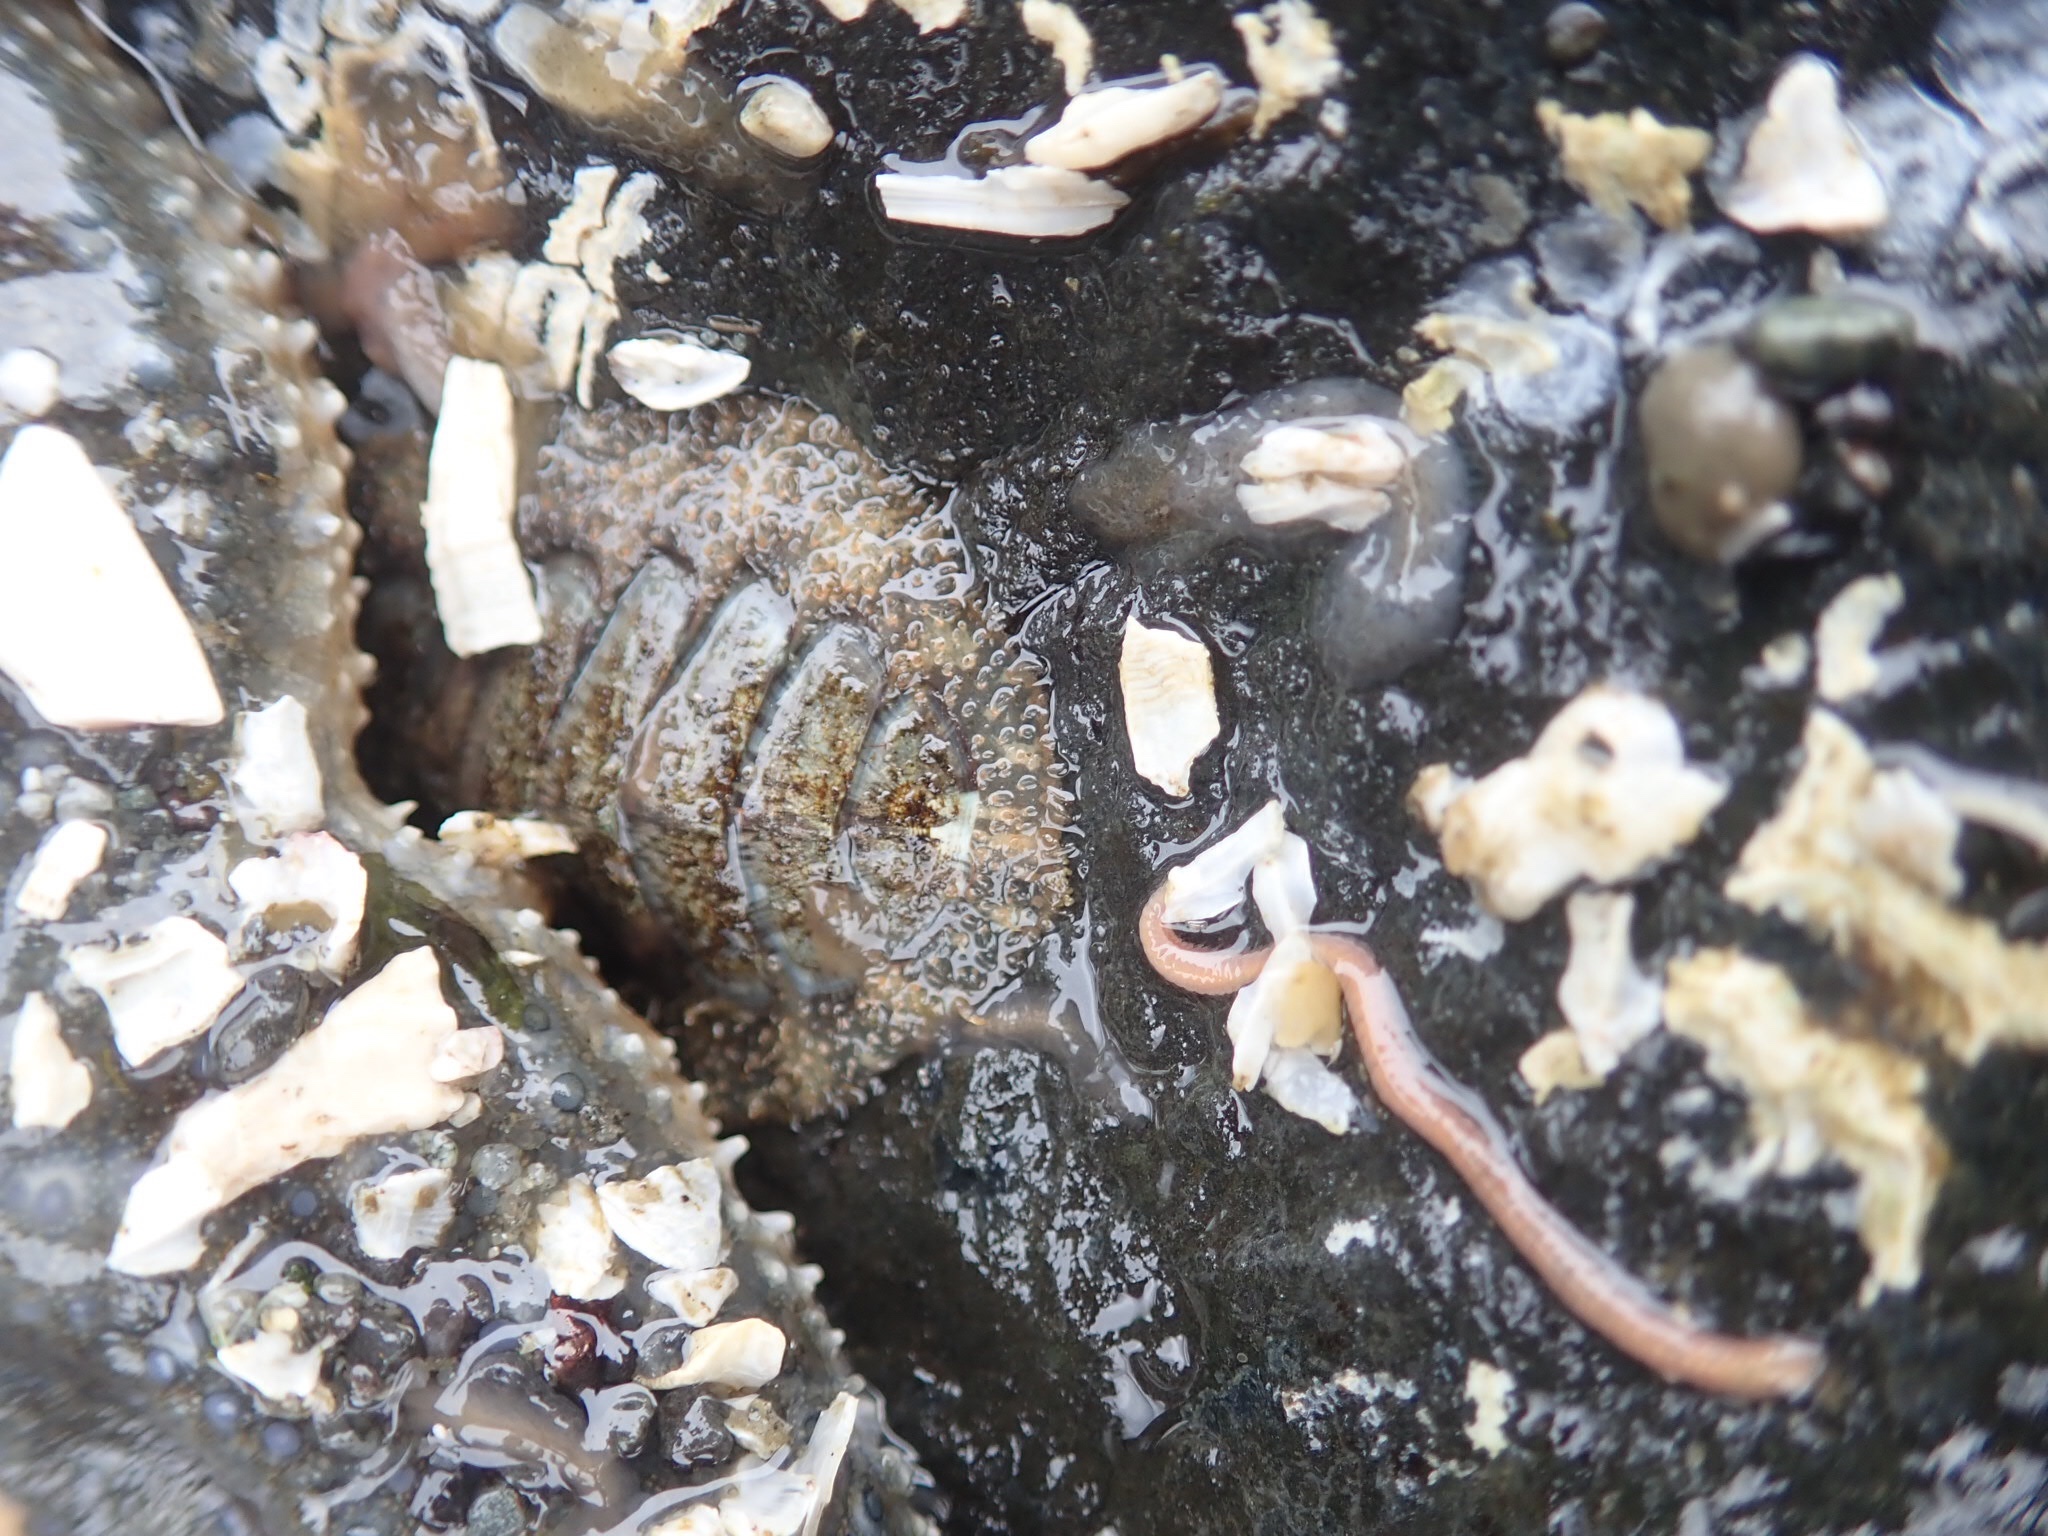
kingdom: Animalia
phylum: Mollusca
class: Polyplacophora
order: Chitonida
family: Mopaliidae
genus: Mopalia
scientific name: Mopalia lignosa
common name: Woody chiton
